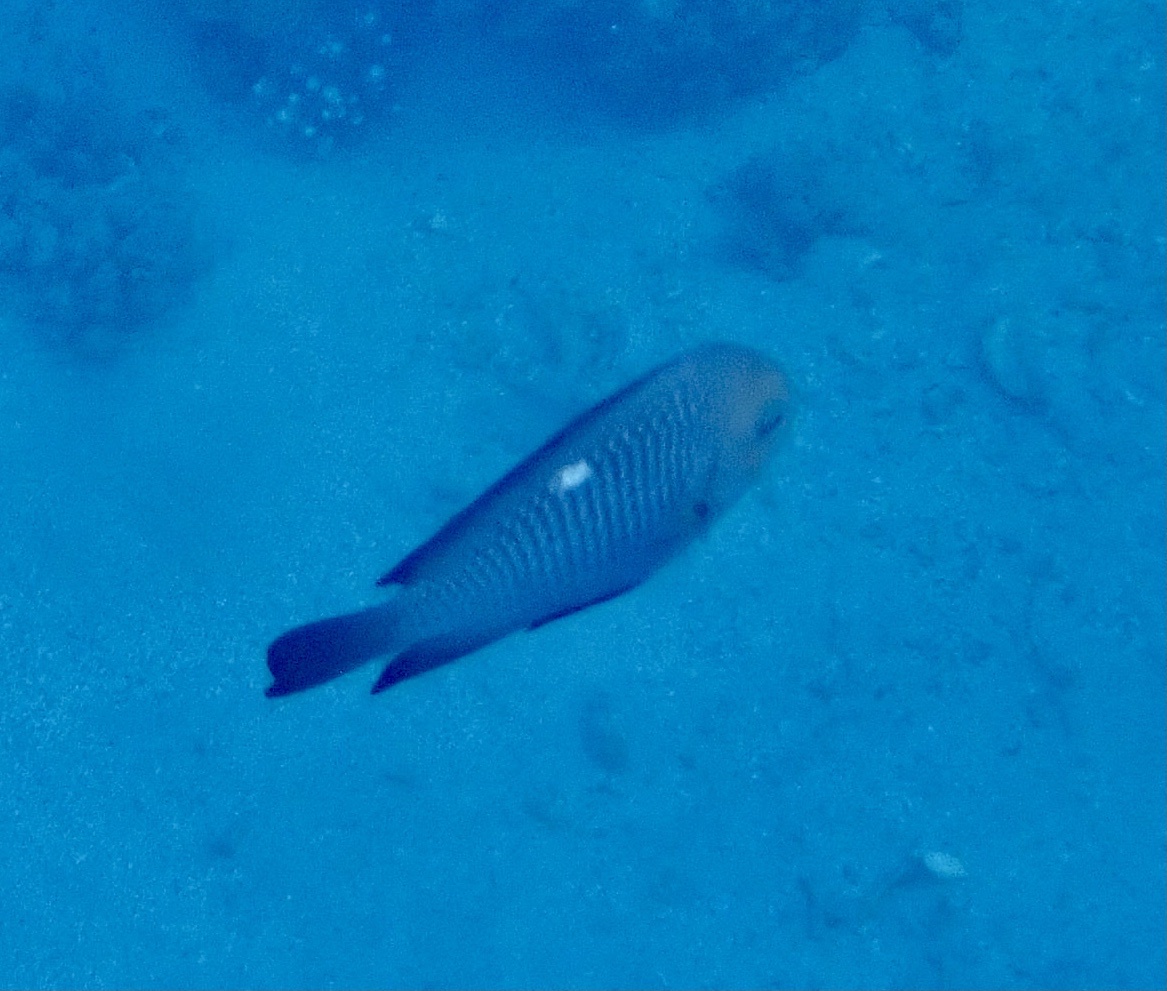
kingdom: Animalia
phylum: Chordata
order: Perciformes
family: Pomacentridae
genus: Dascyllus
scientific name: Dascyllus trimaculatus
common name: Threespot dascyllus
